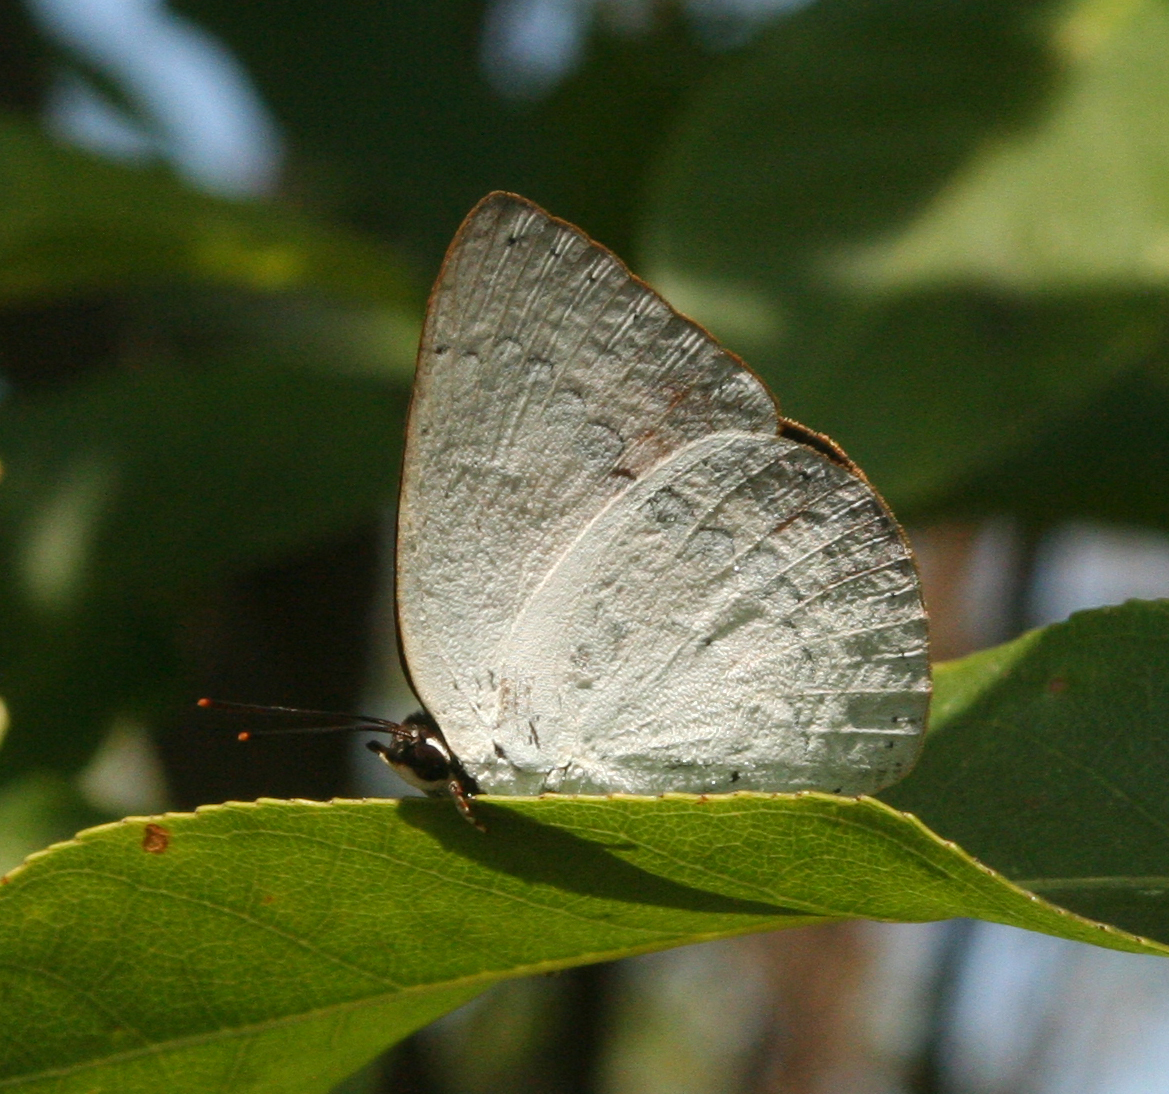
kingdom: Animalia
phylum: Arthropoda
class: Insecta
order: Lepidoptera
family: Lycaenidae
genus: Curetis
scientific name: Curetis saronis
